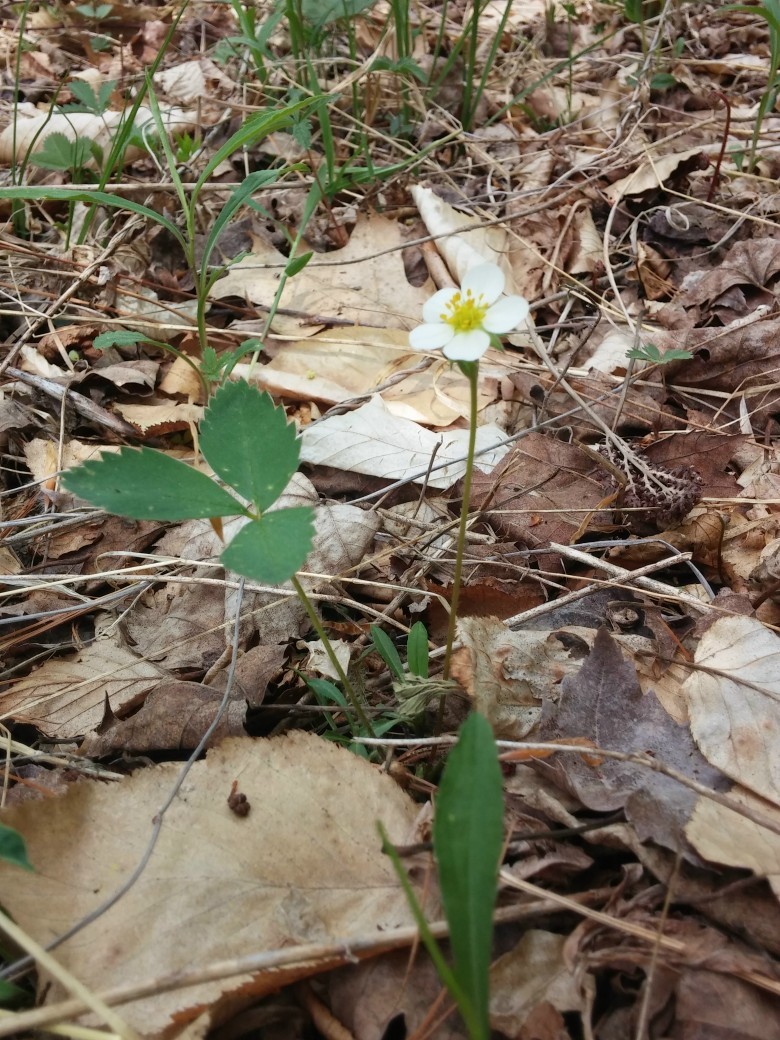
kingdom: Plantae
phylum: Tracheophyta
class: Magnoliopsida
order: Rosales
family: Rosaceae
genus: Fragaria
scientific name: Fragaria vesca
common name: Wild strawberry
